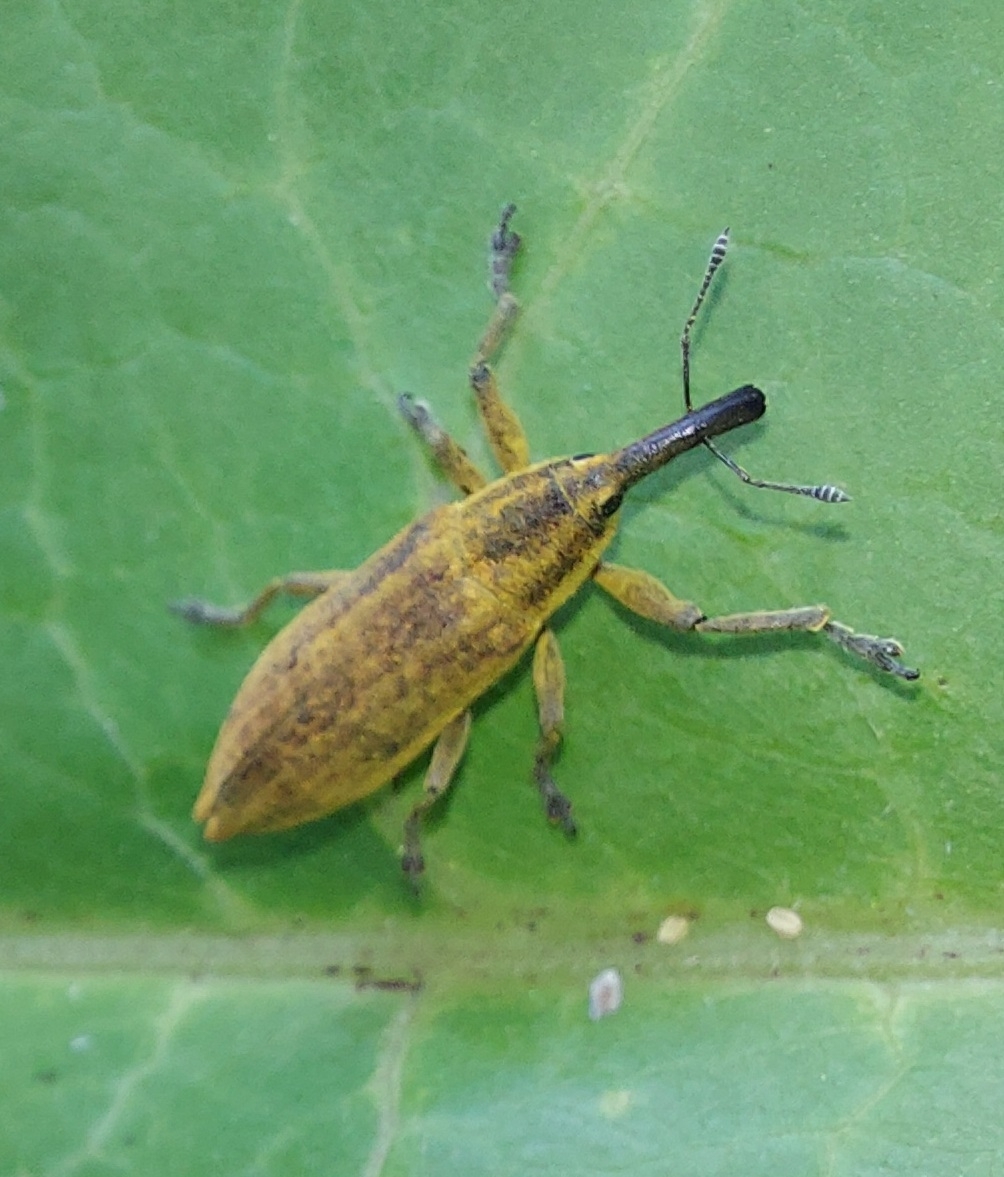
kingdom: Animalia
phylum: Arthropoda
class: Insecta
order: Coleoptera
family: Curculionidae
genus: Lixus
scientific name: Lixus iridis
